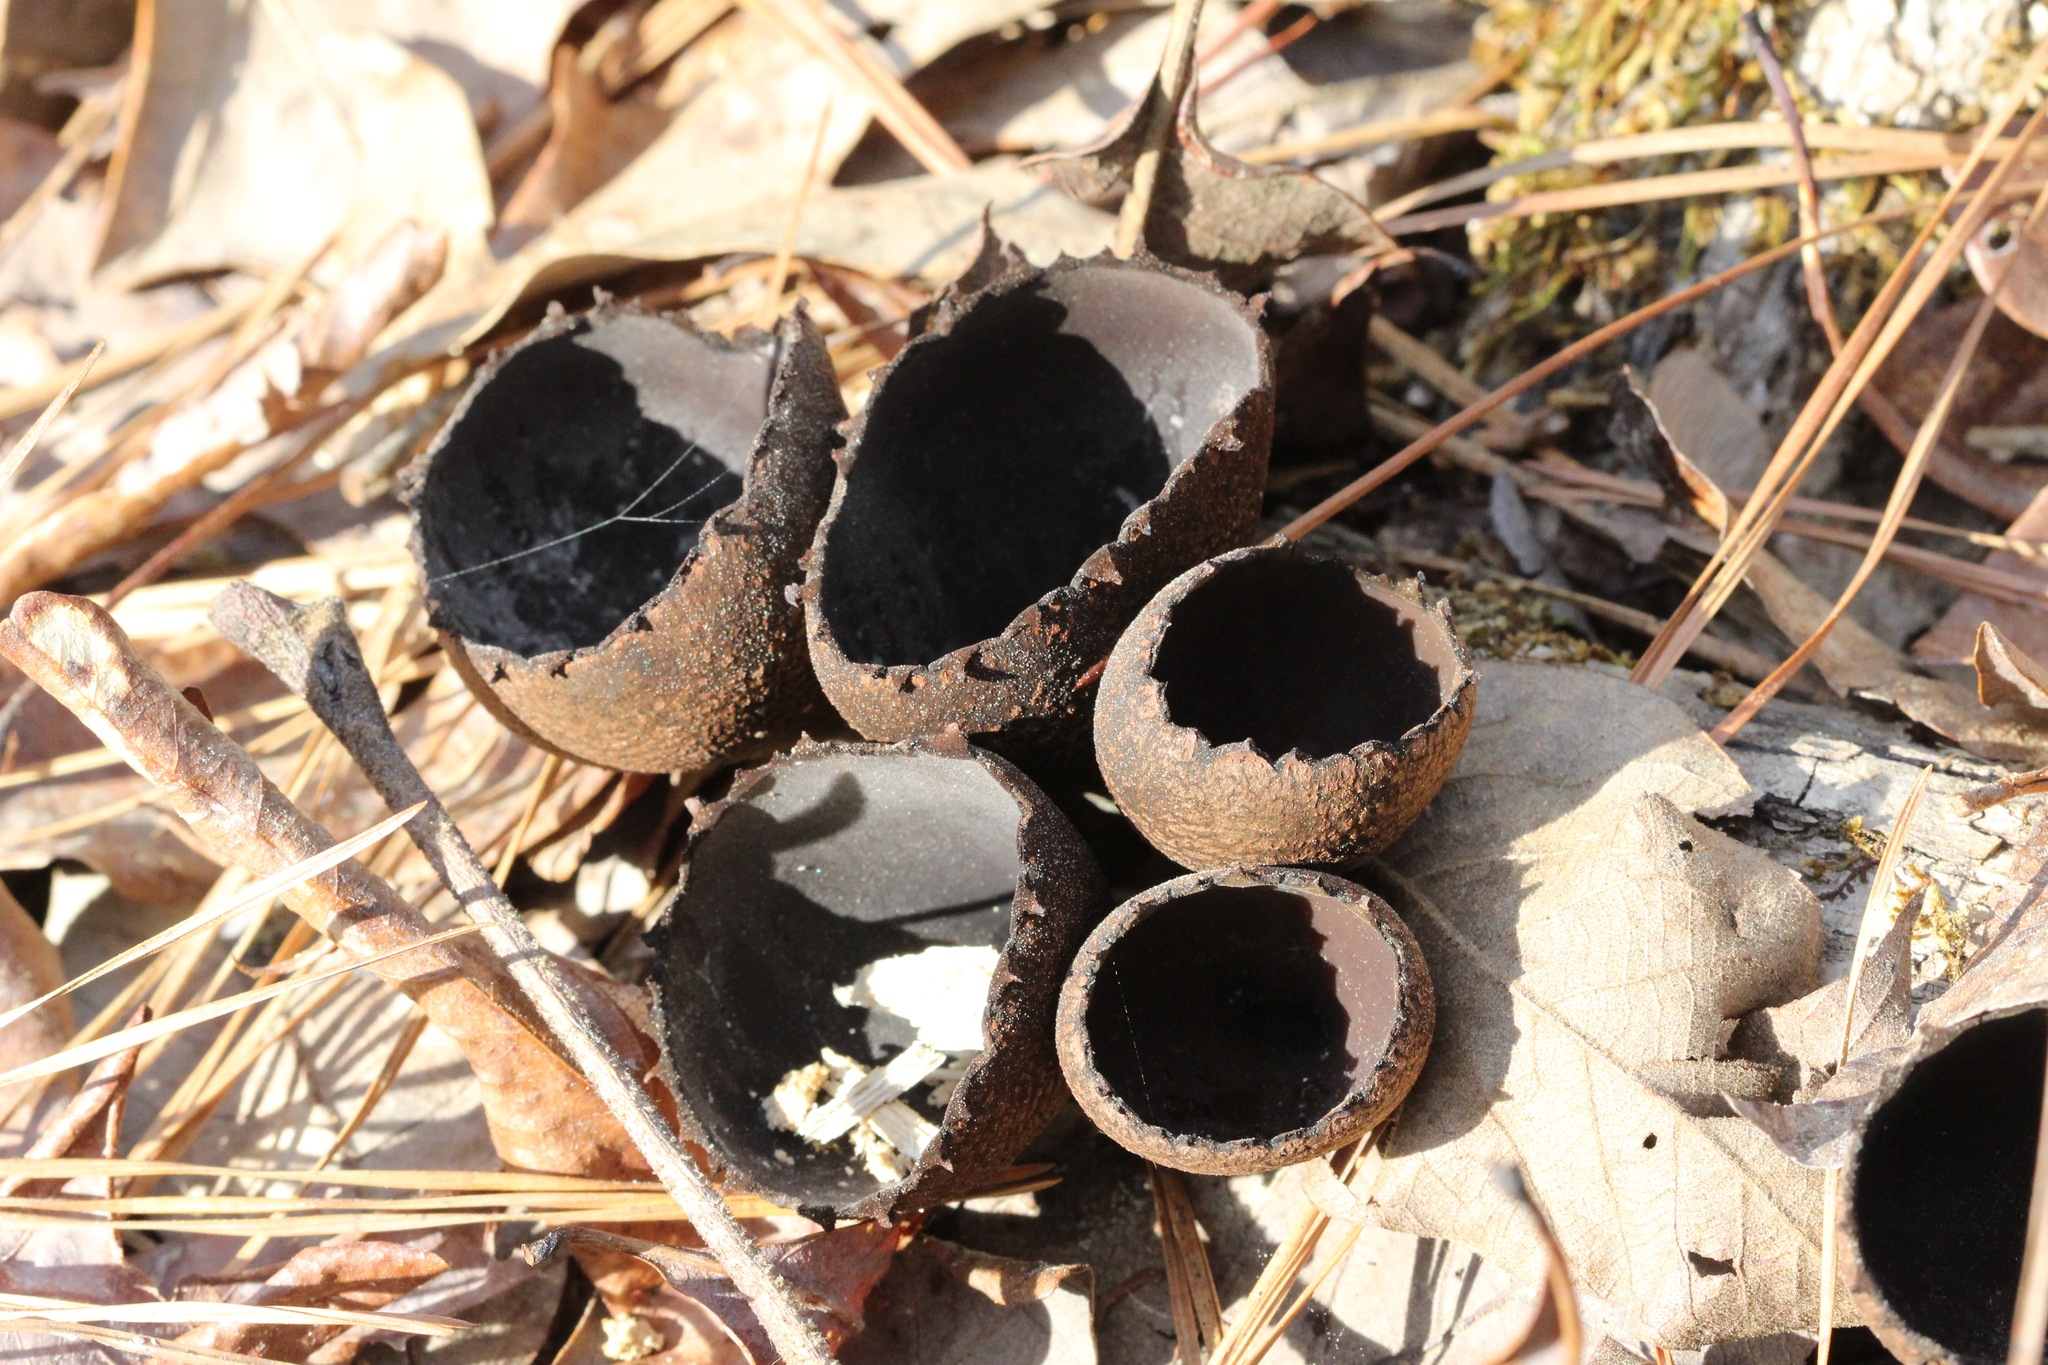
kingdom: Fungi
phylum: Ascomycota
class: Pezizomycetes
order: Pezizales
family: Sarcosomataceae
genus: Urnula
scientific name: Urnula craterium
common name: Devil's urn
